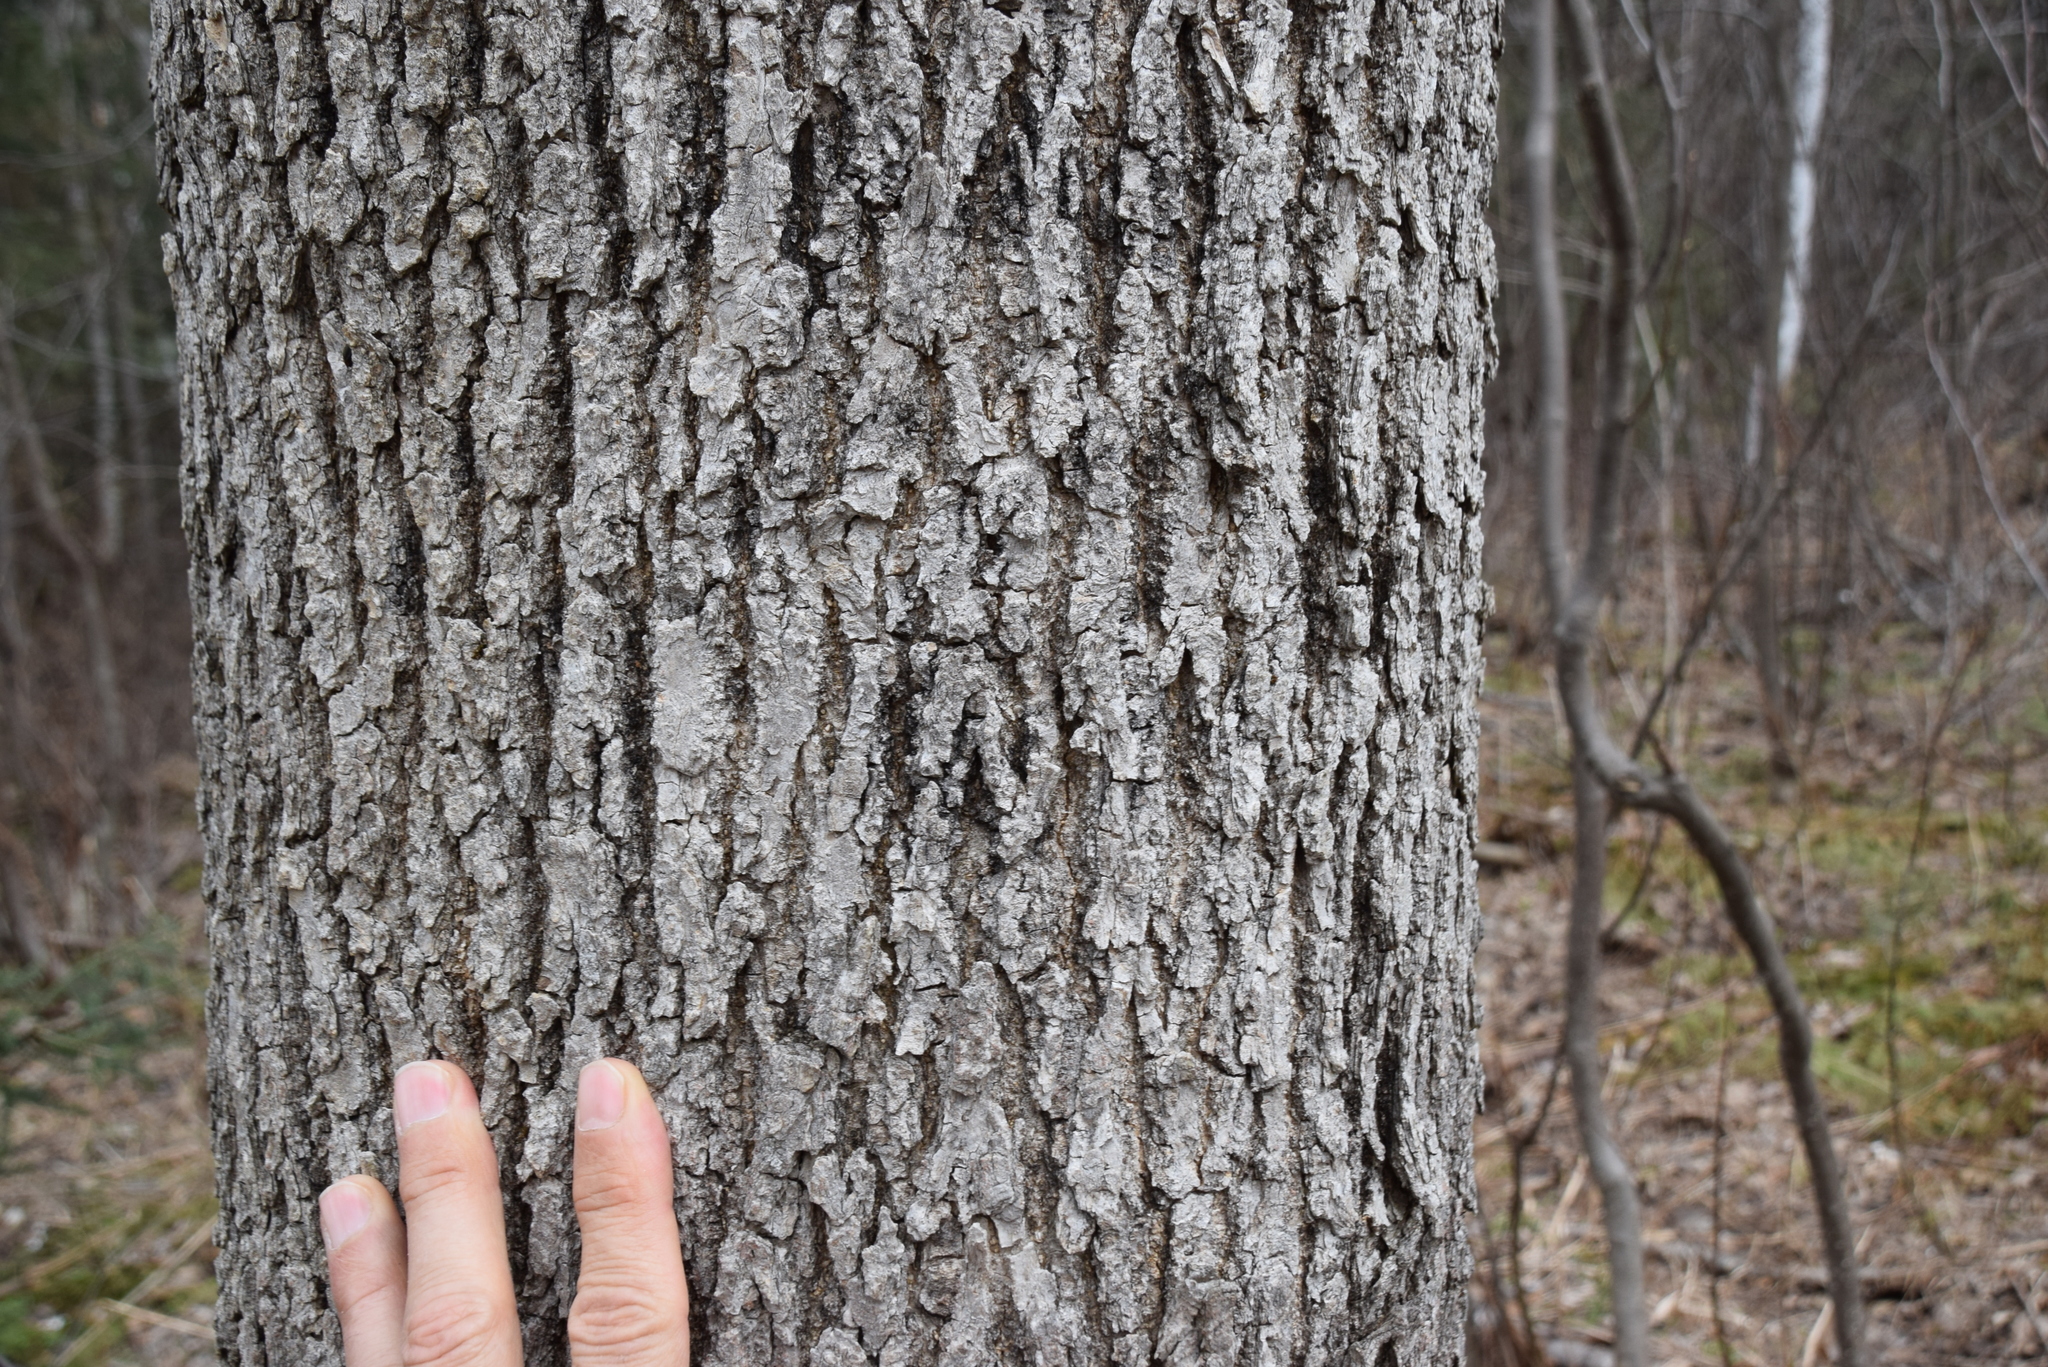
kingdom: Plantae
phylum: Tracheophyta
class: Magnoliopsida
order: Lamiales
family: Oleaceae
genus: Fraxinus
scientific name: Fraxinus nigra
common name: Black ash
